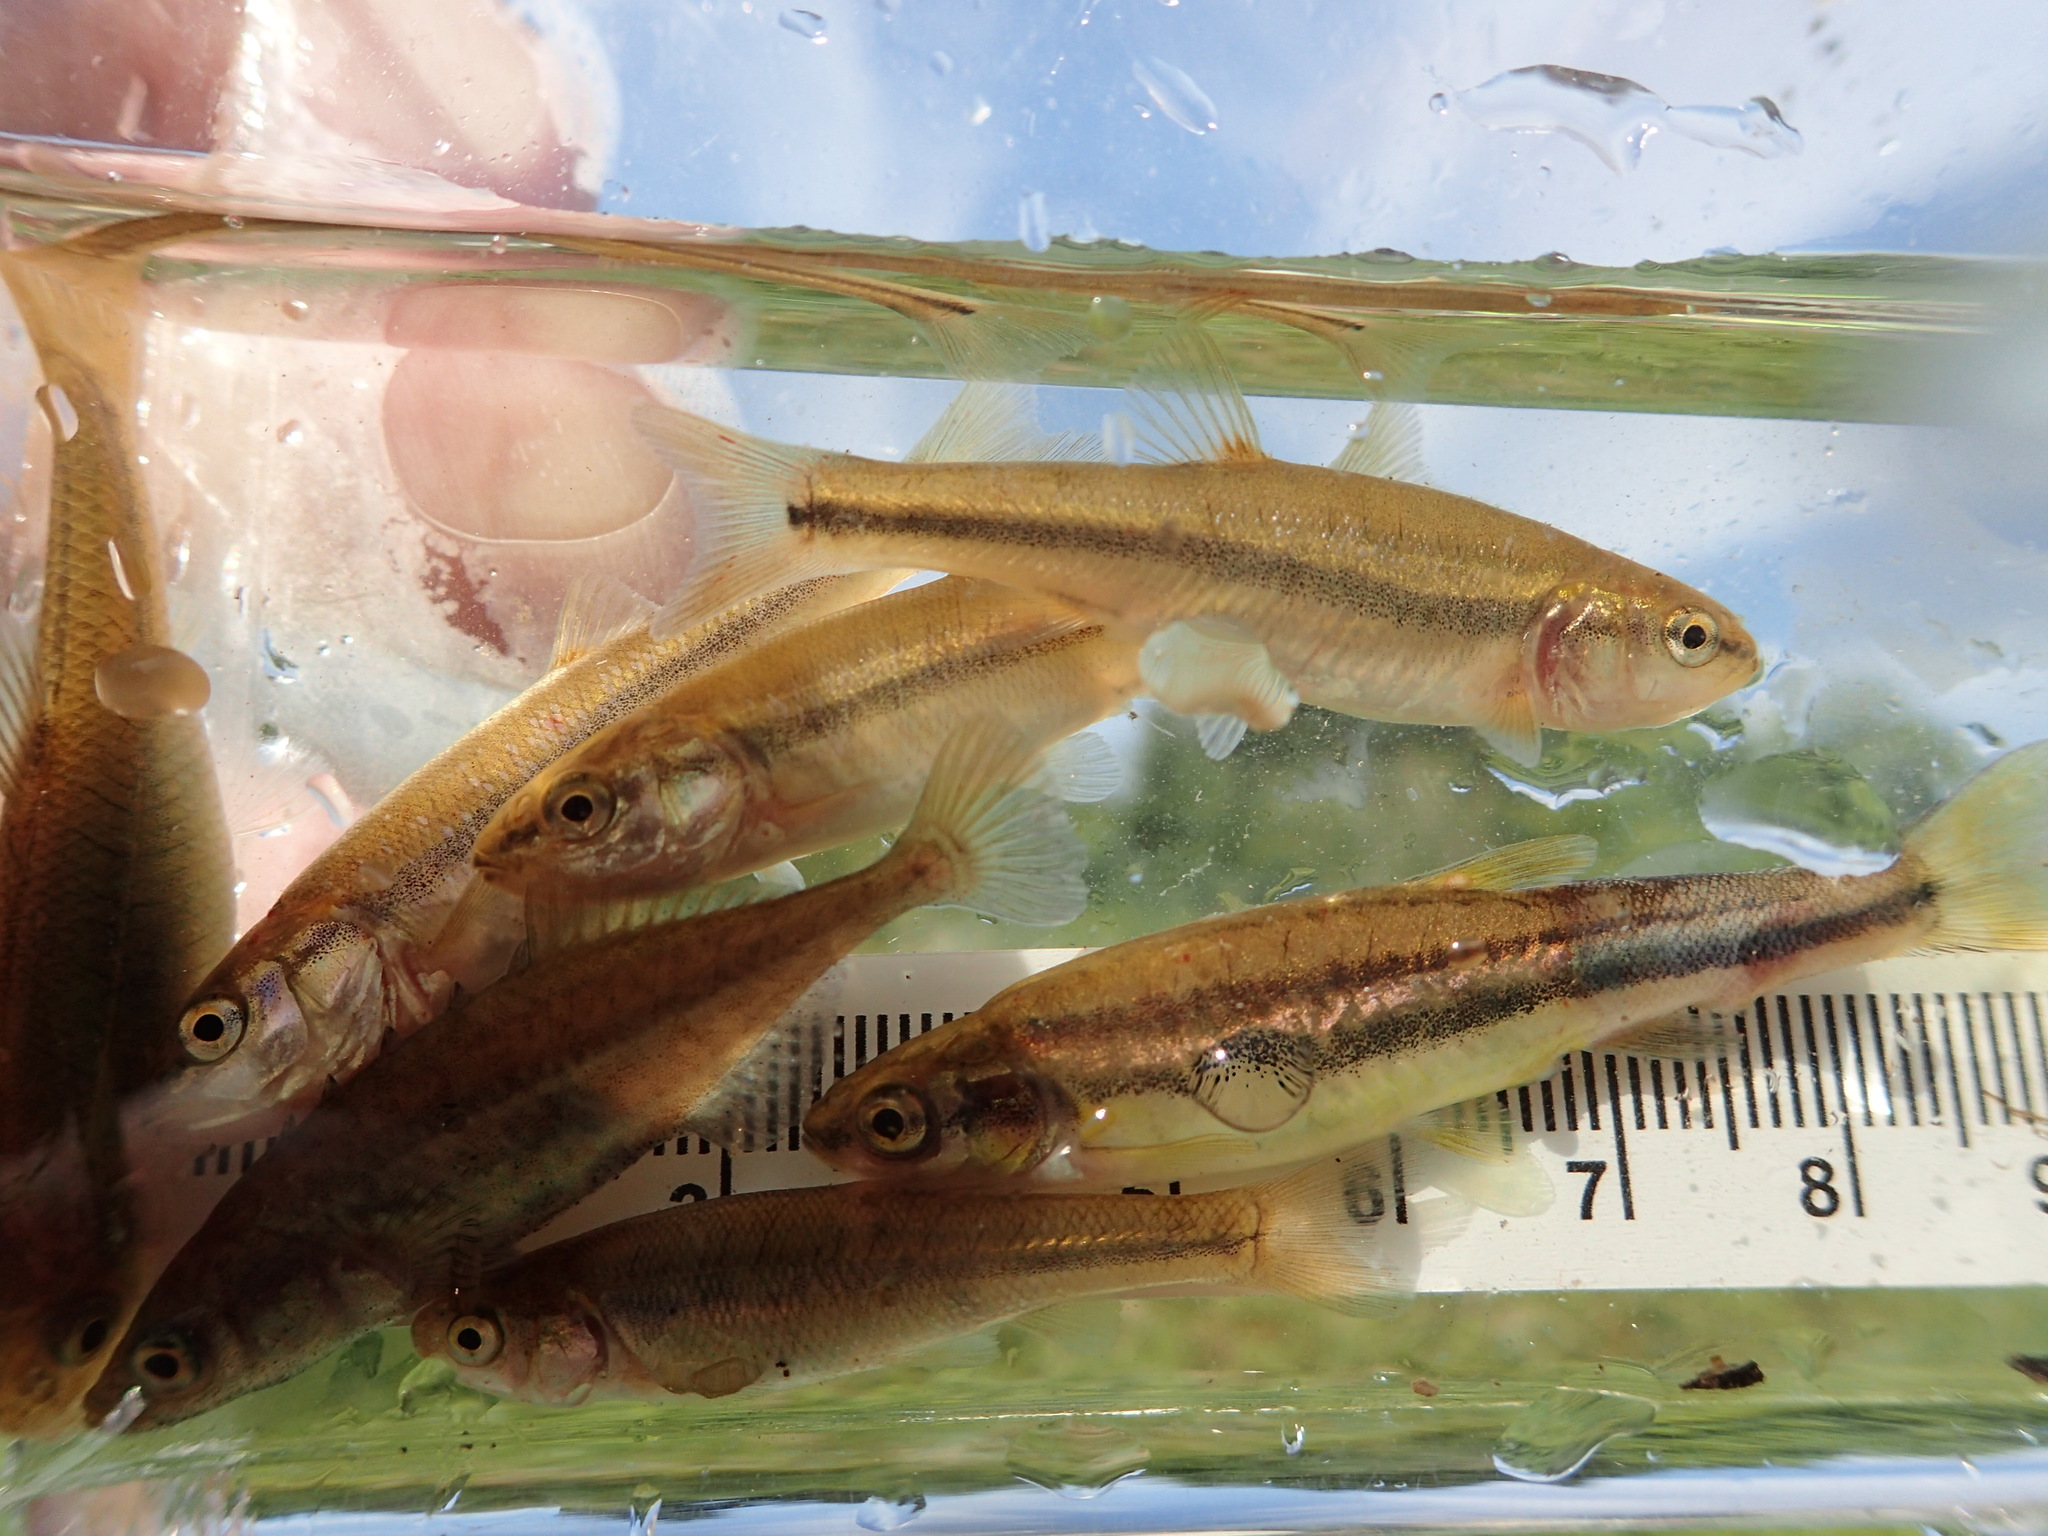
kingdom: Animalia
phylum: Chordata
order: Cypriniformes
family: Cyprinidae
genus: Chrosomus
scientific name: Chrosomus eos
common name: Northern redbelly dace
